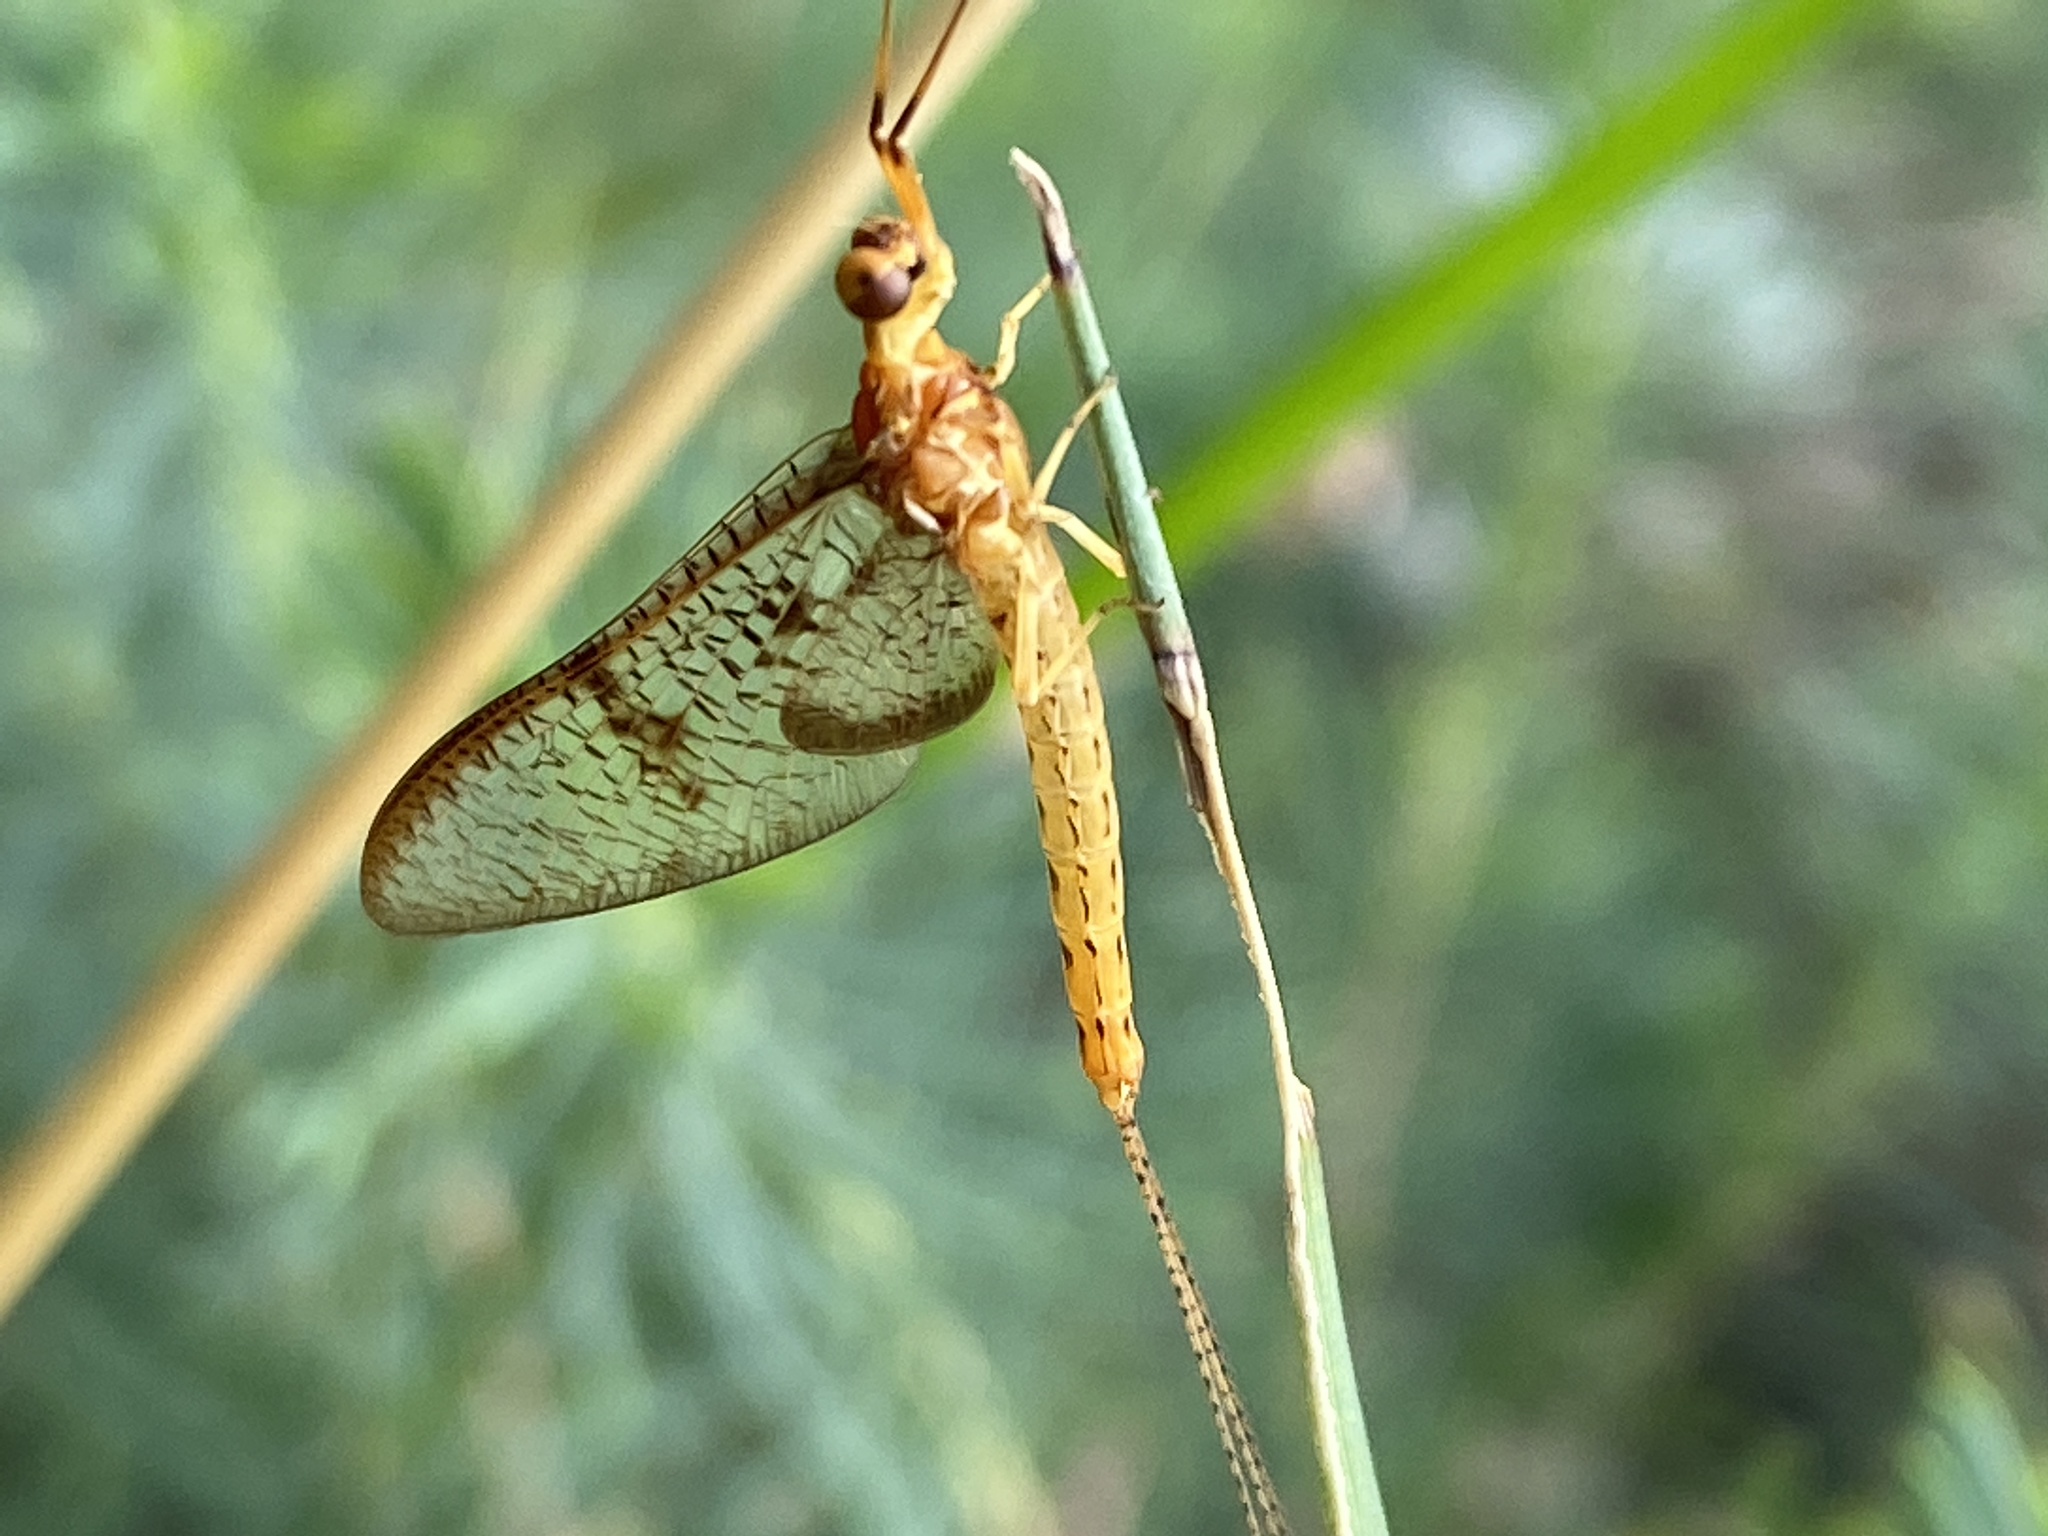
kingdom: Animalia
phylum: Arthropoda
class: Insecta
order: Ephemeroptera
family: Ephemeridae
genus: Ephemera
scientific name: Ephemera glaucops
